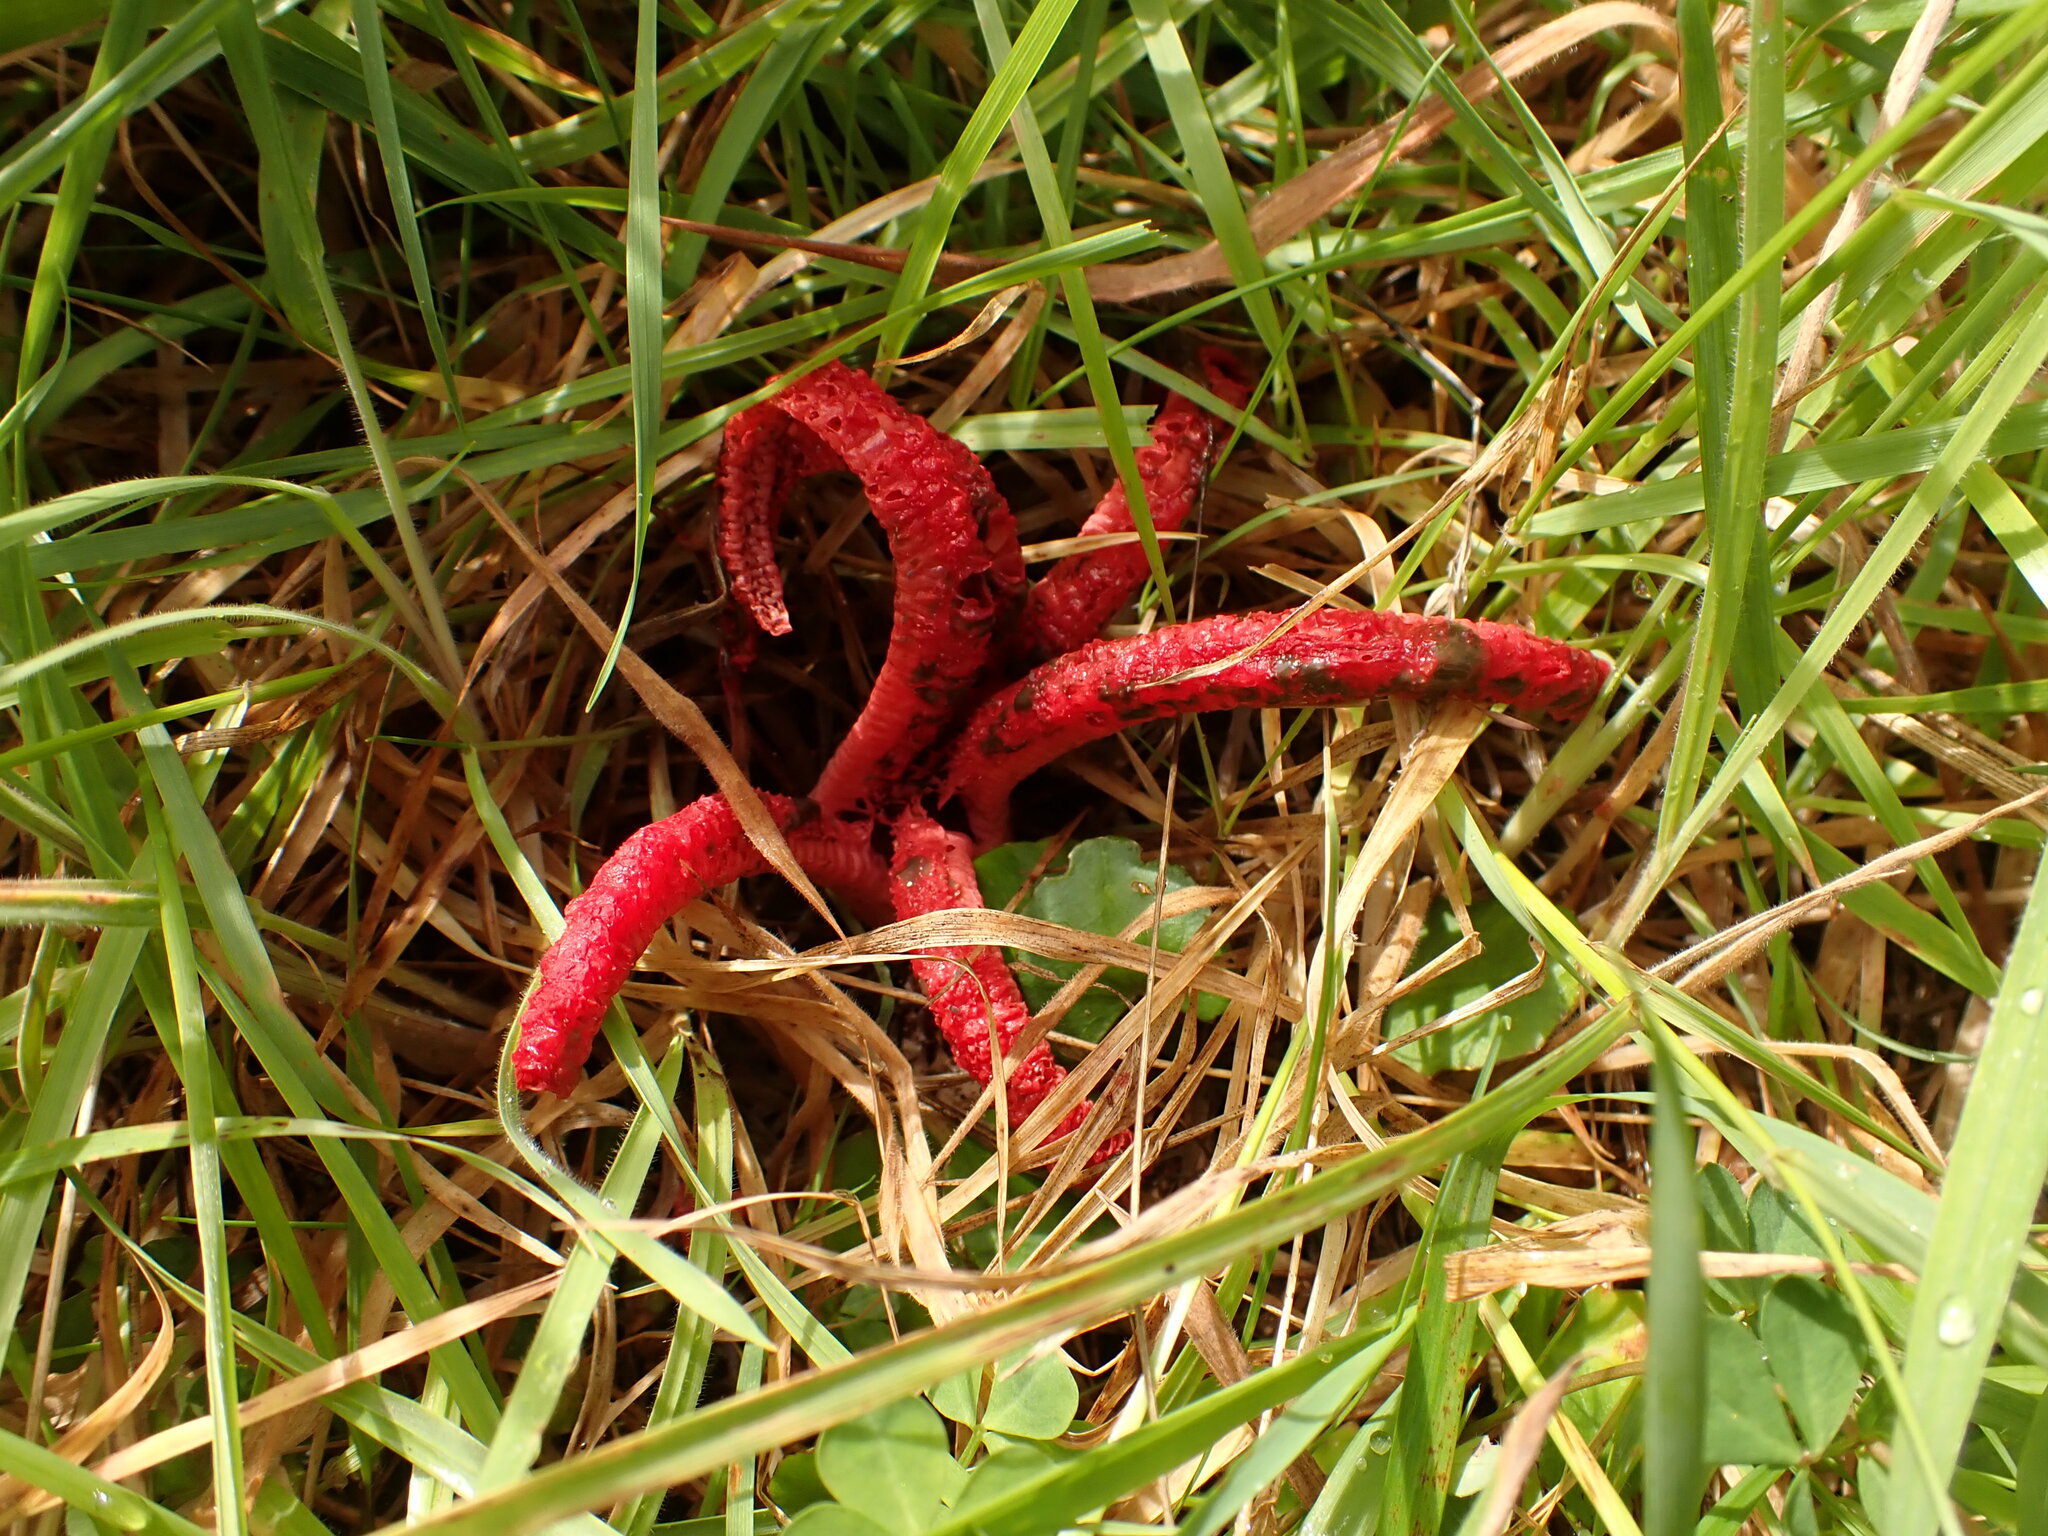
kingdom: Fungi
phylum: Basidiomycota
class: Agaricomycetes
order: Phallales
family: Phallaceae
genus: Clathrus
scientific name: Clathrus archeri
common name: Devil's fingers
